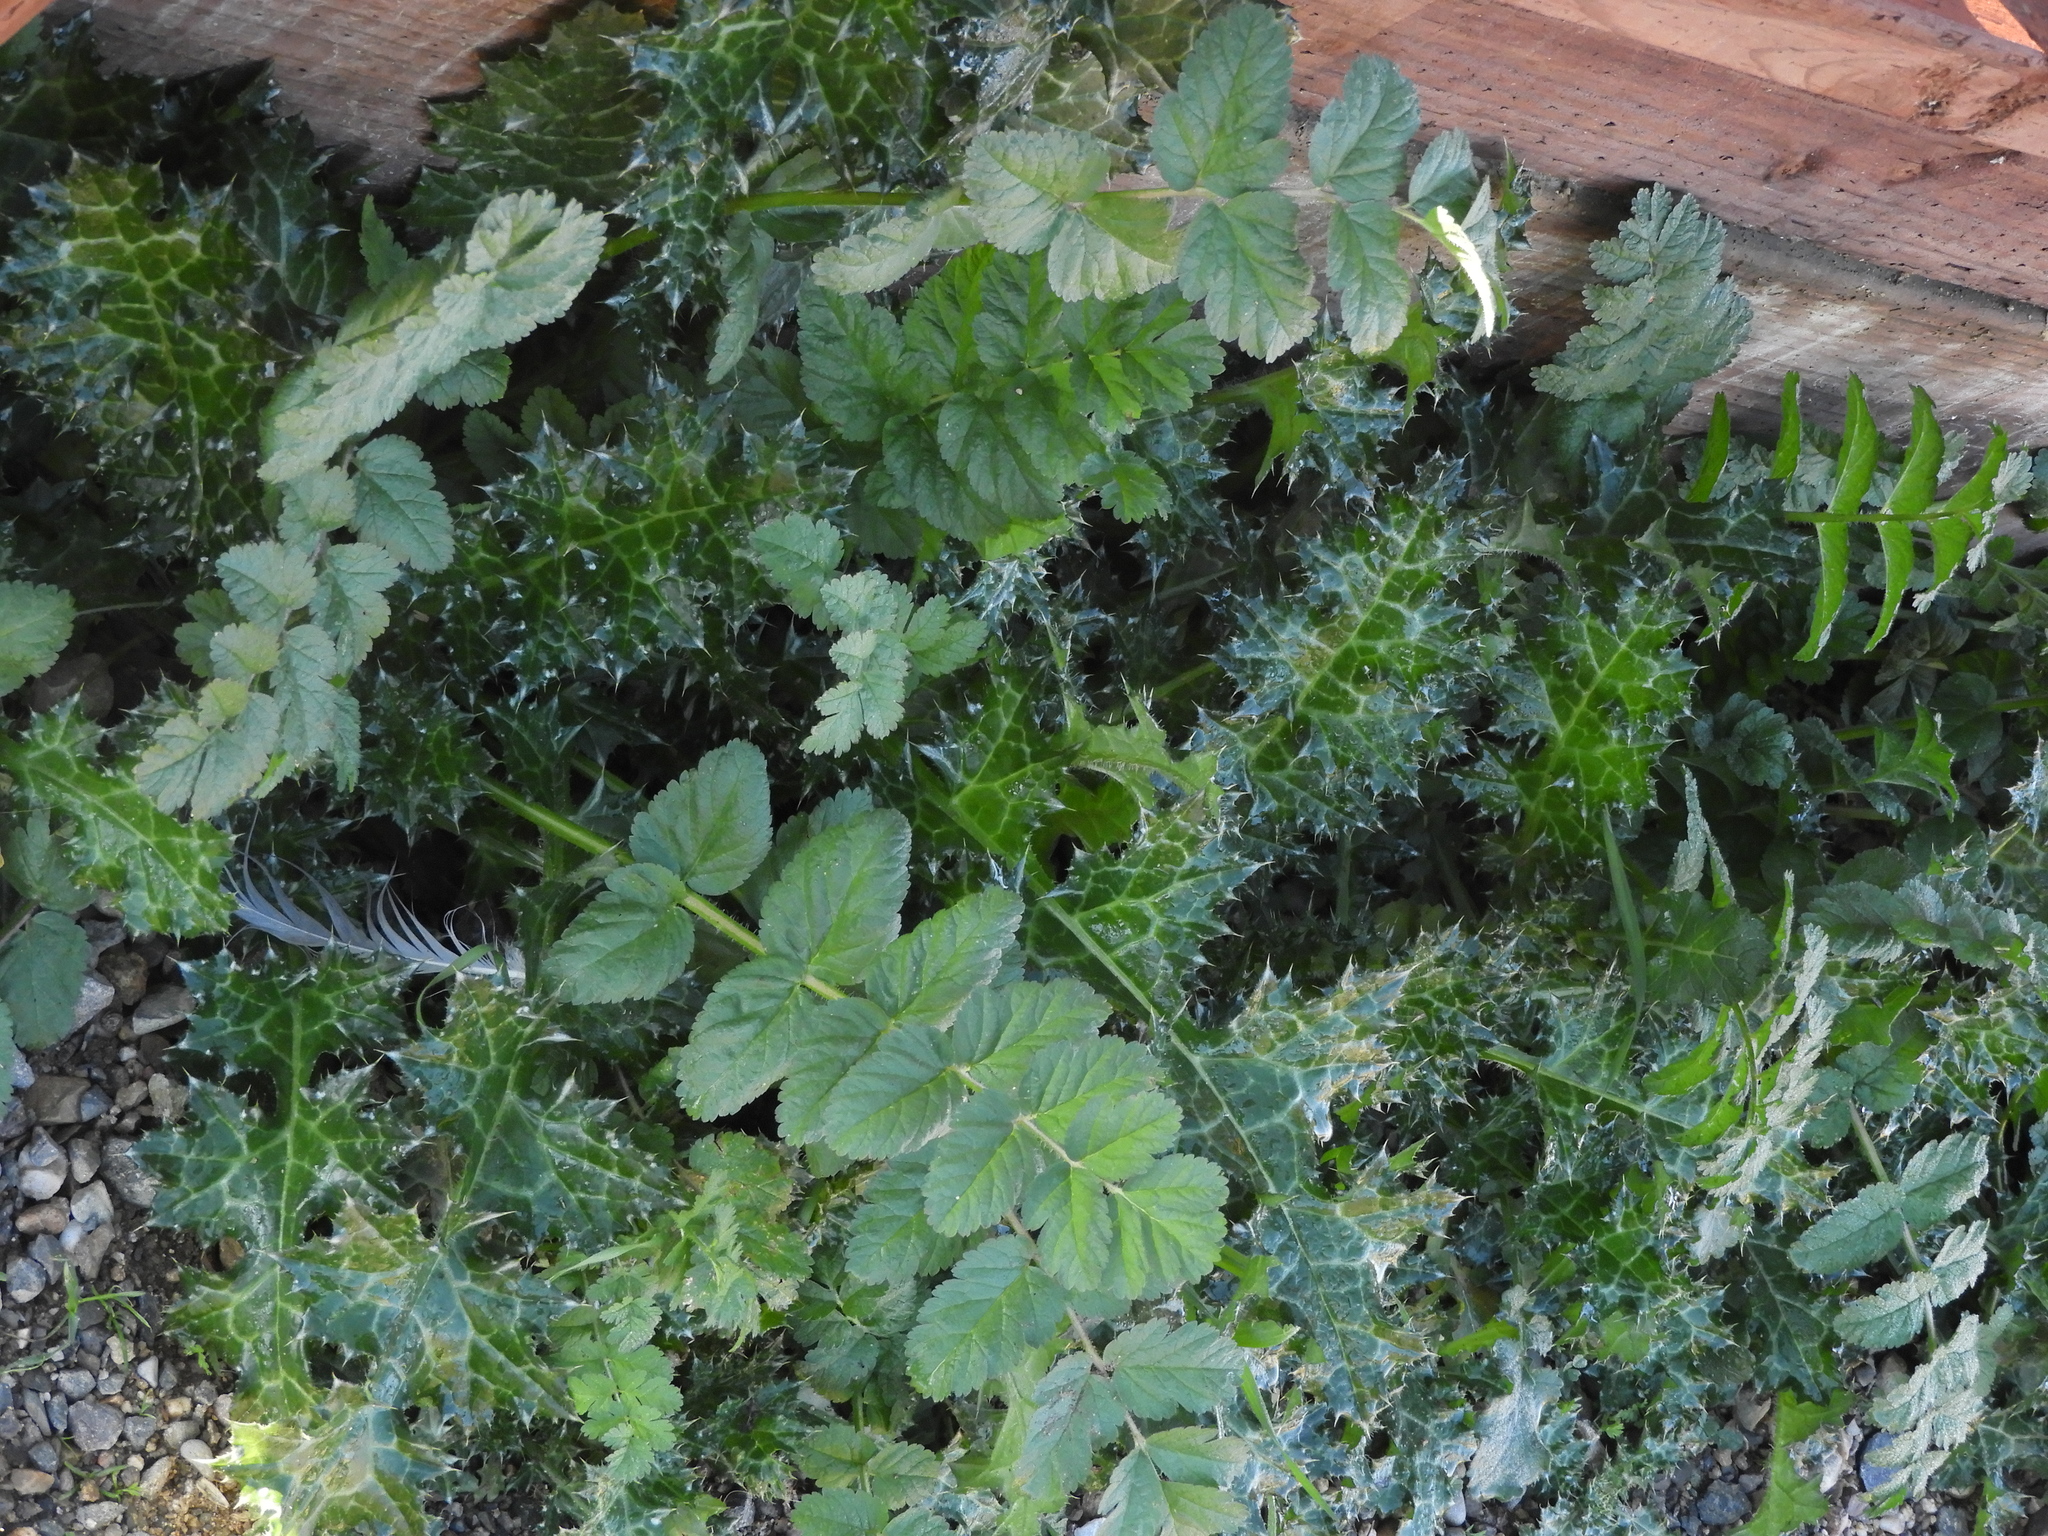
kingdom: Plantae
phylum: Tracheophyta
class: Magnoliopsida
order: Geraniales
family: Geraniaceae
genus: Erodium
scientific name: Erodium moschatum
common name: Musk stork's-bill
